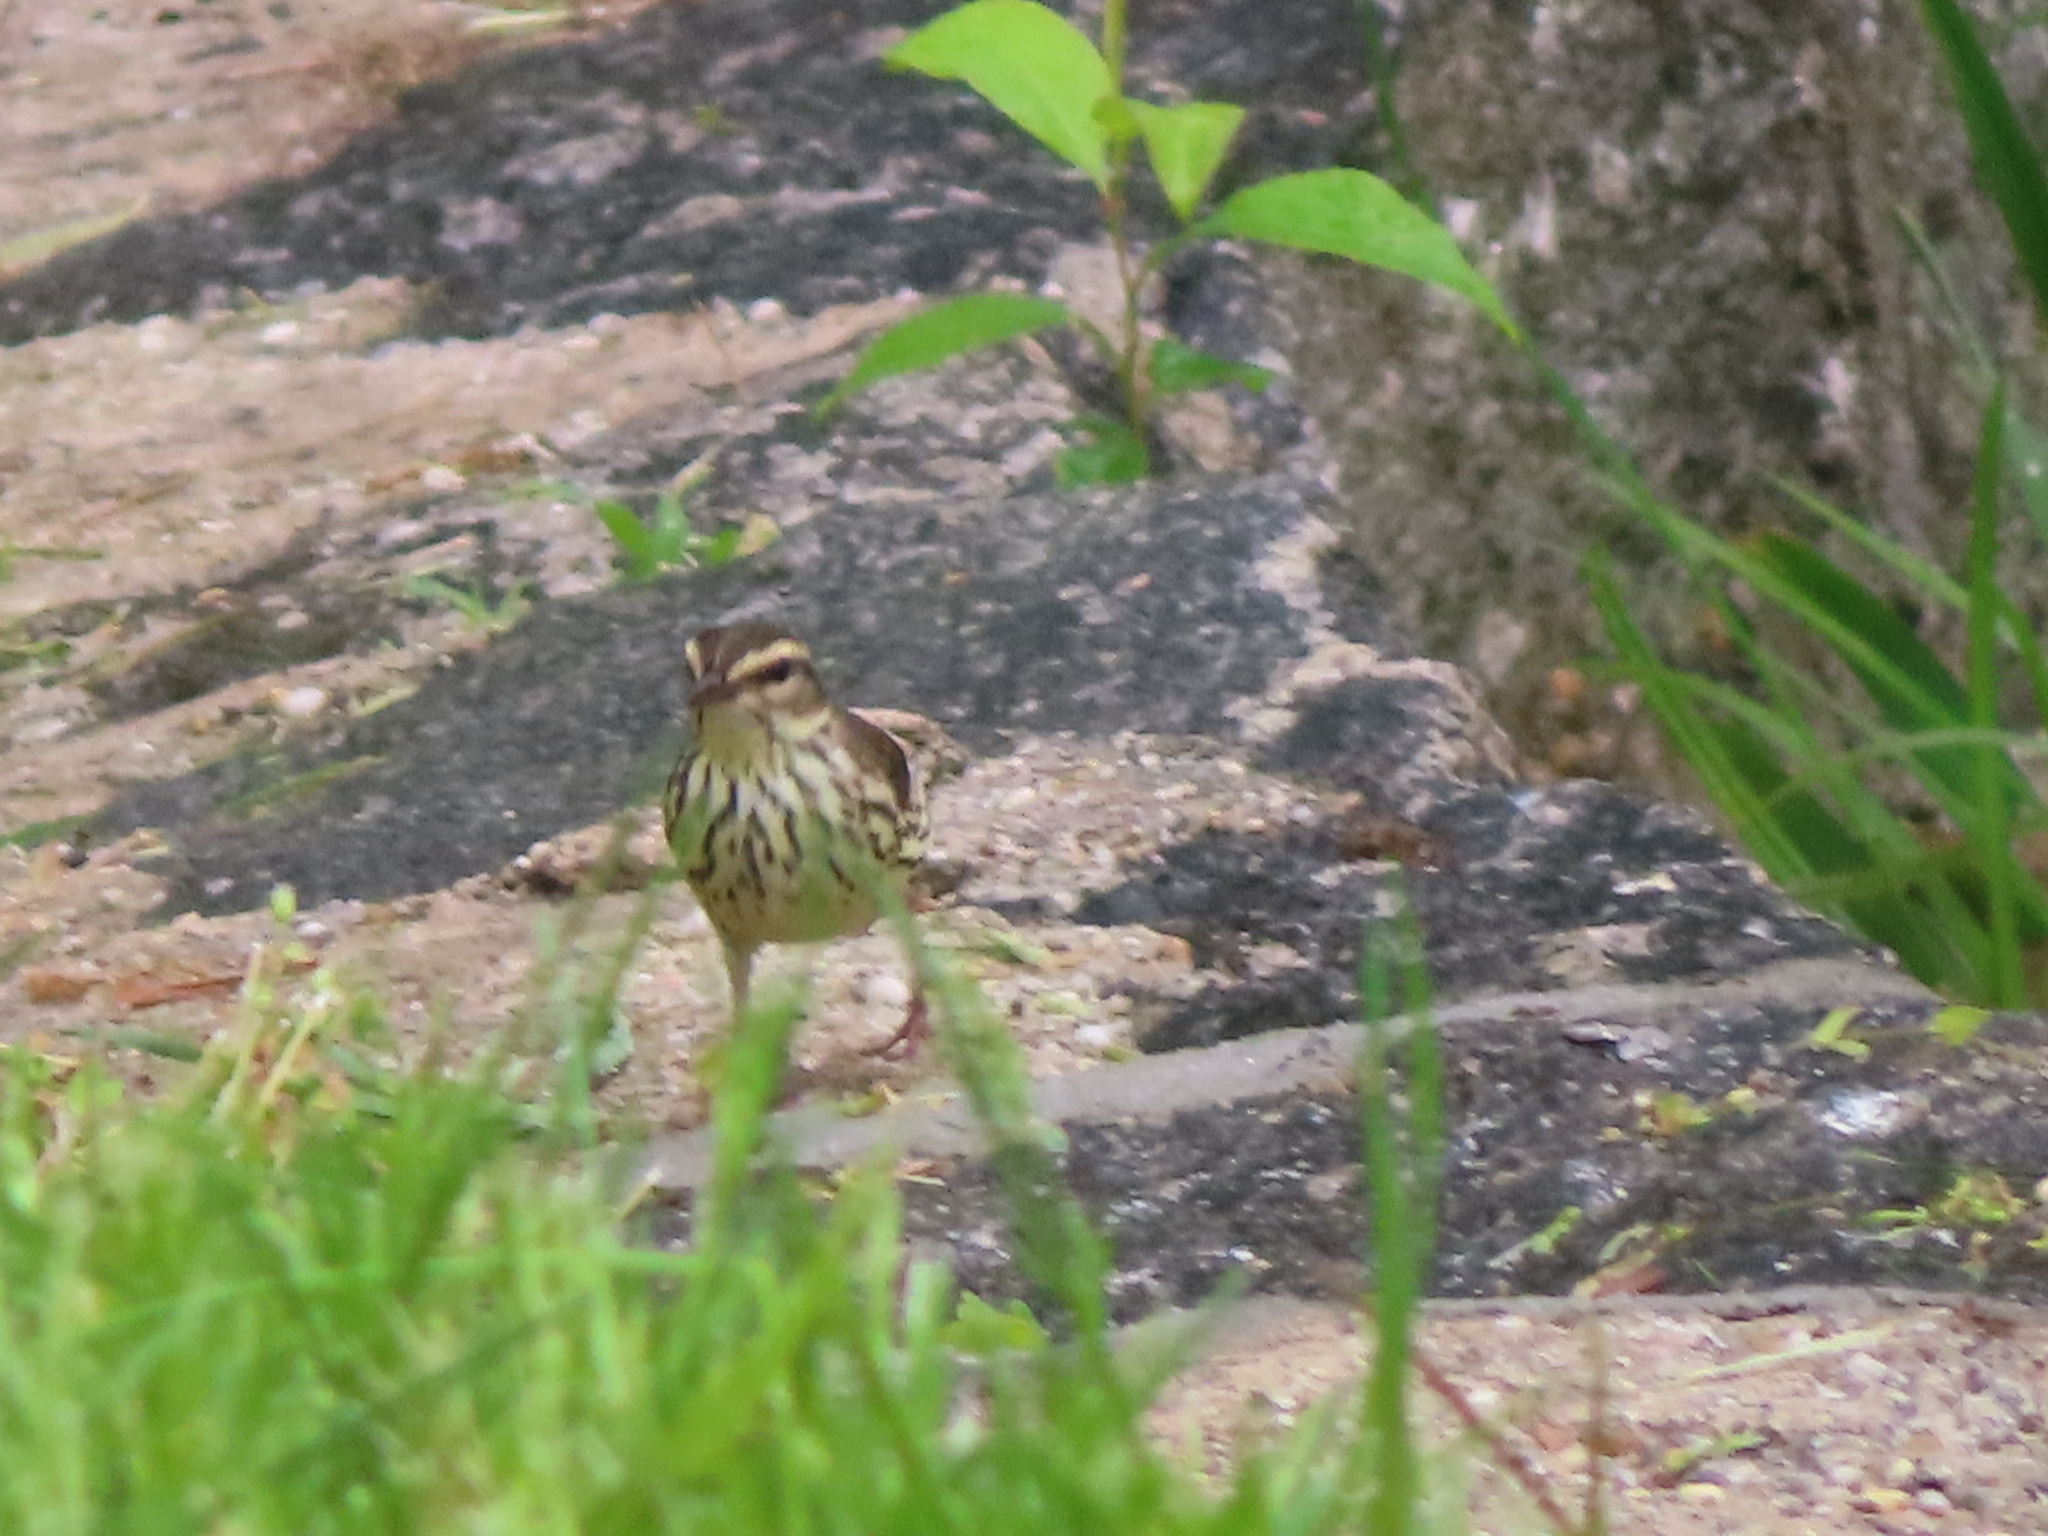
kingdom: Animalia
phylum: Chordata
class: Aves
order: Passeriformes
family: Parulidae
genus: Parkesia
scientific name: Parkesia noveboracensis
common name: Northern waterthrush
